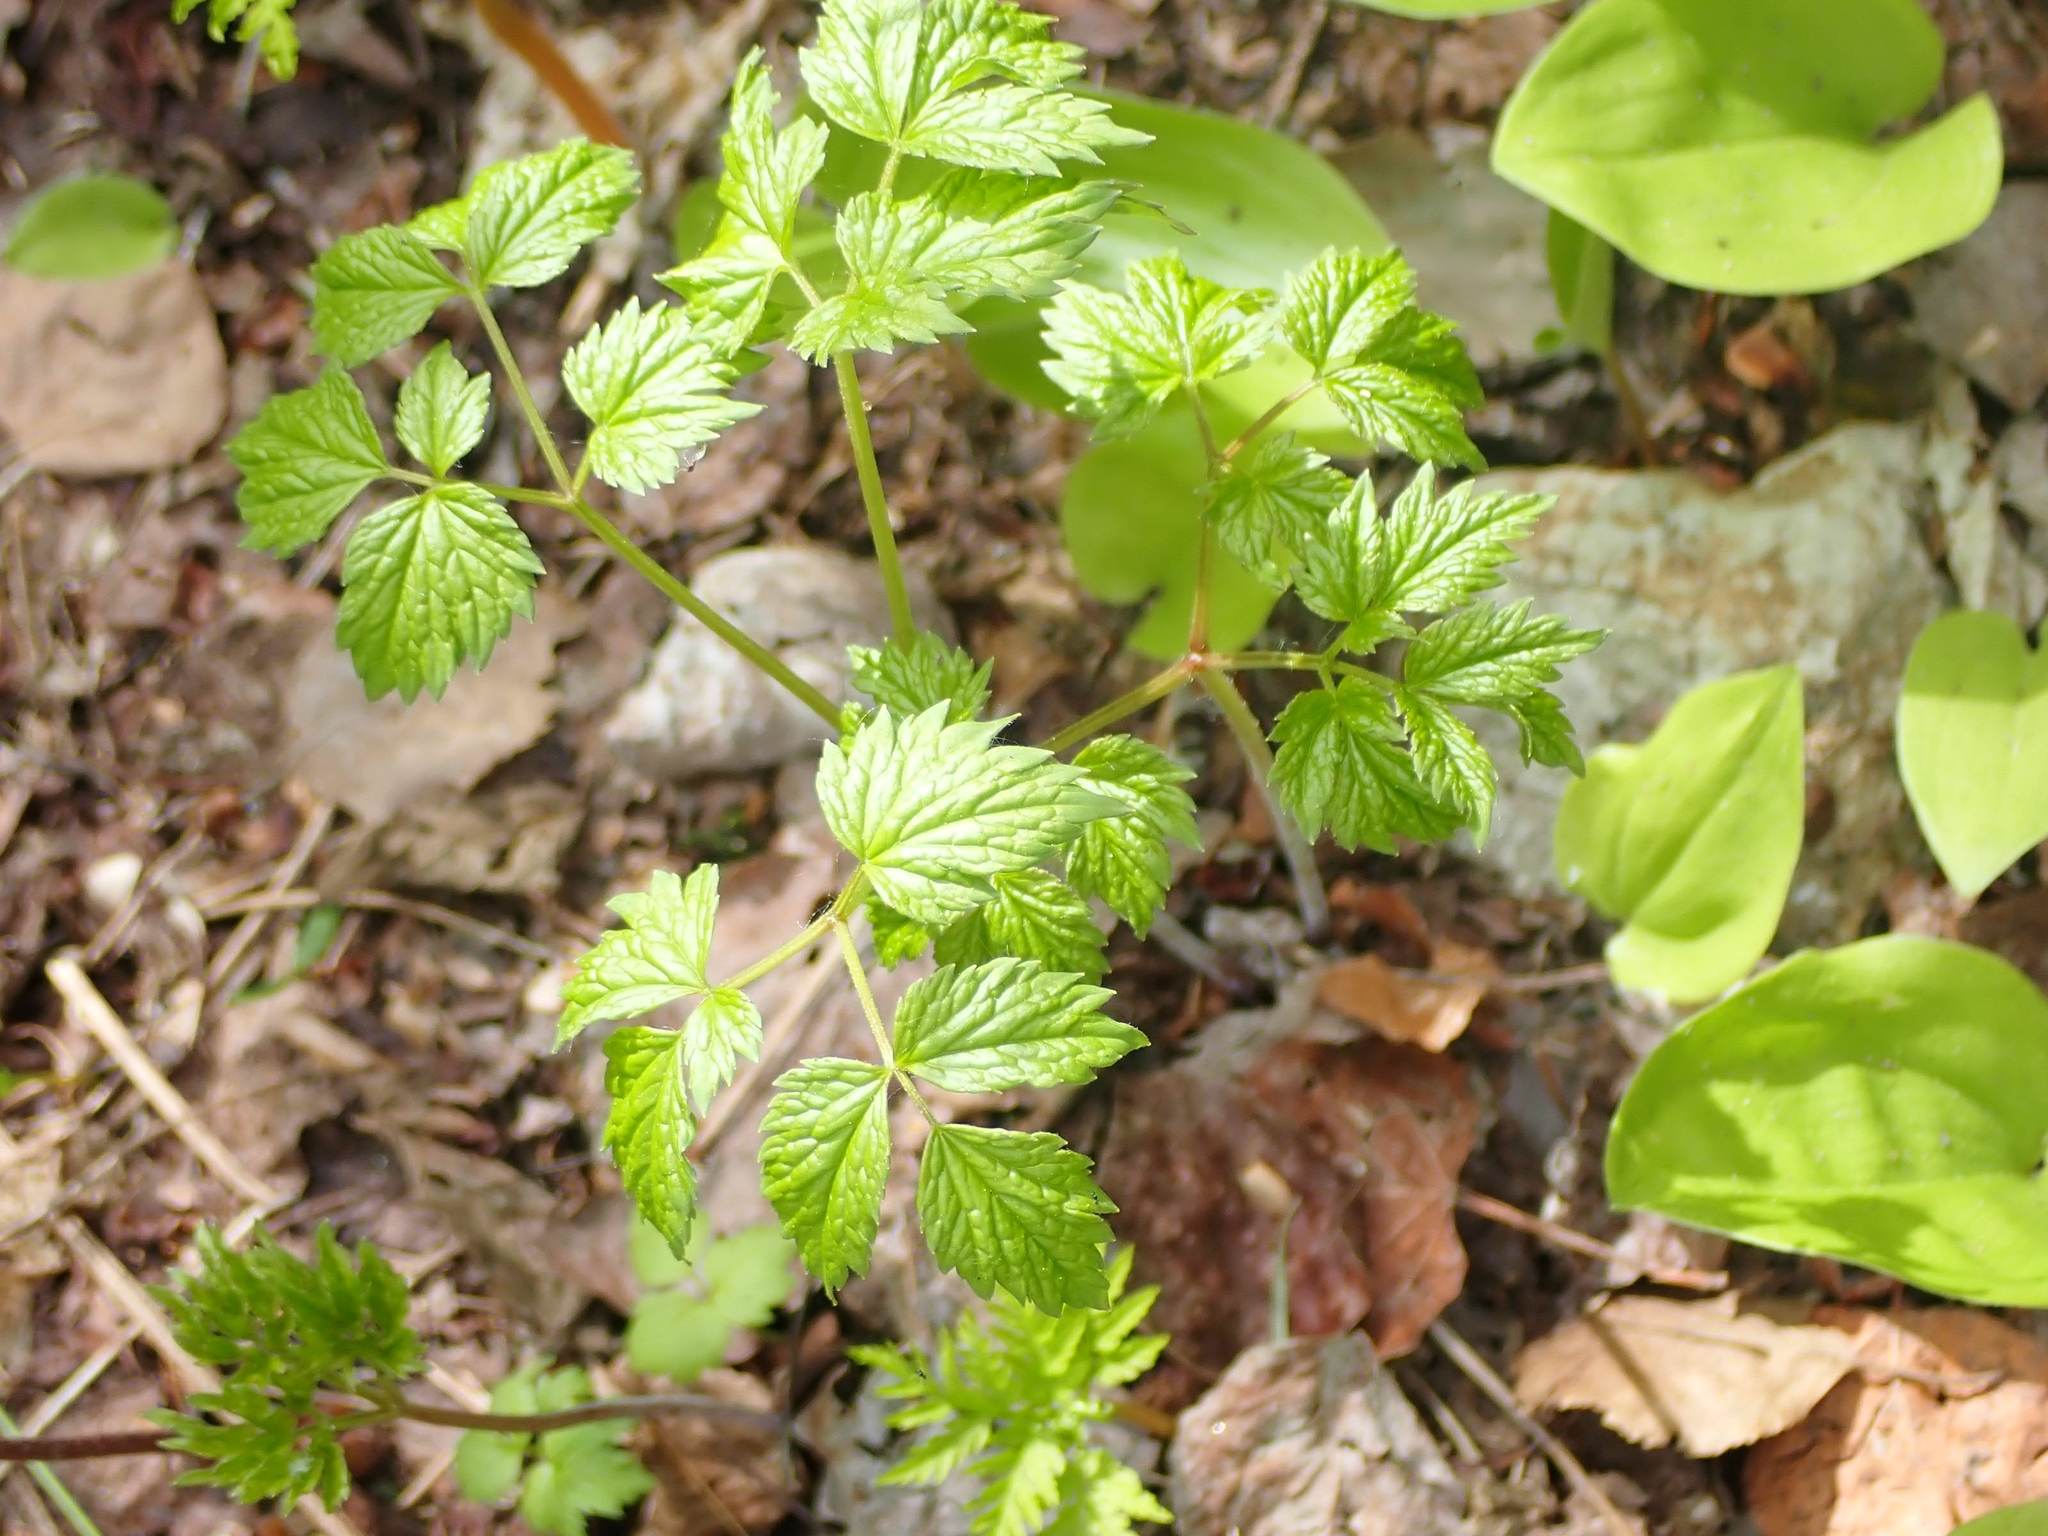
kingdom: Plantae
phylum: Tracheophyta
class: Magnoliopsida
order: Ranunculales
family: Ranunculaceae
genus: Actaea
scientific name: Actaea rubra
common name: Red baneberry
